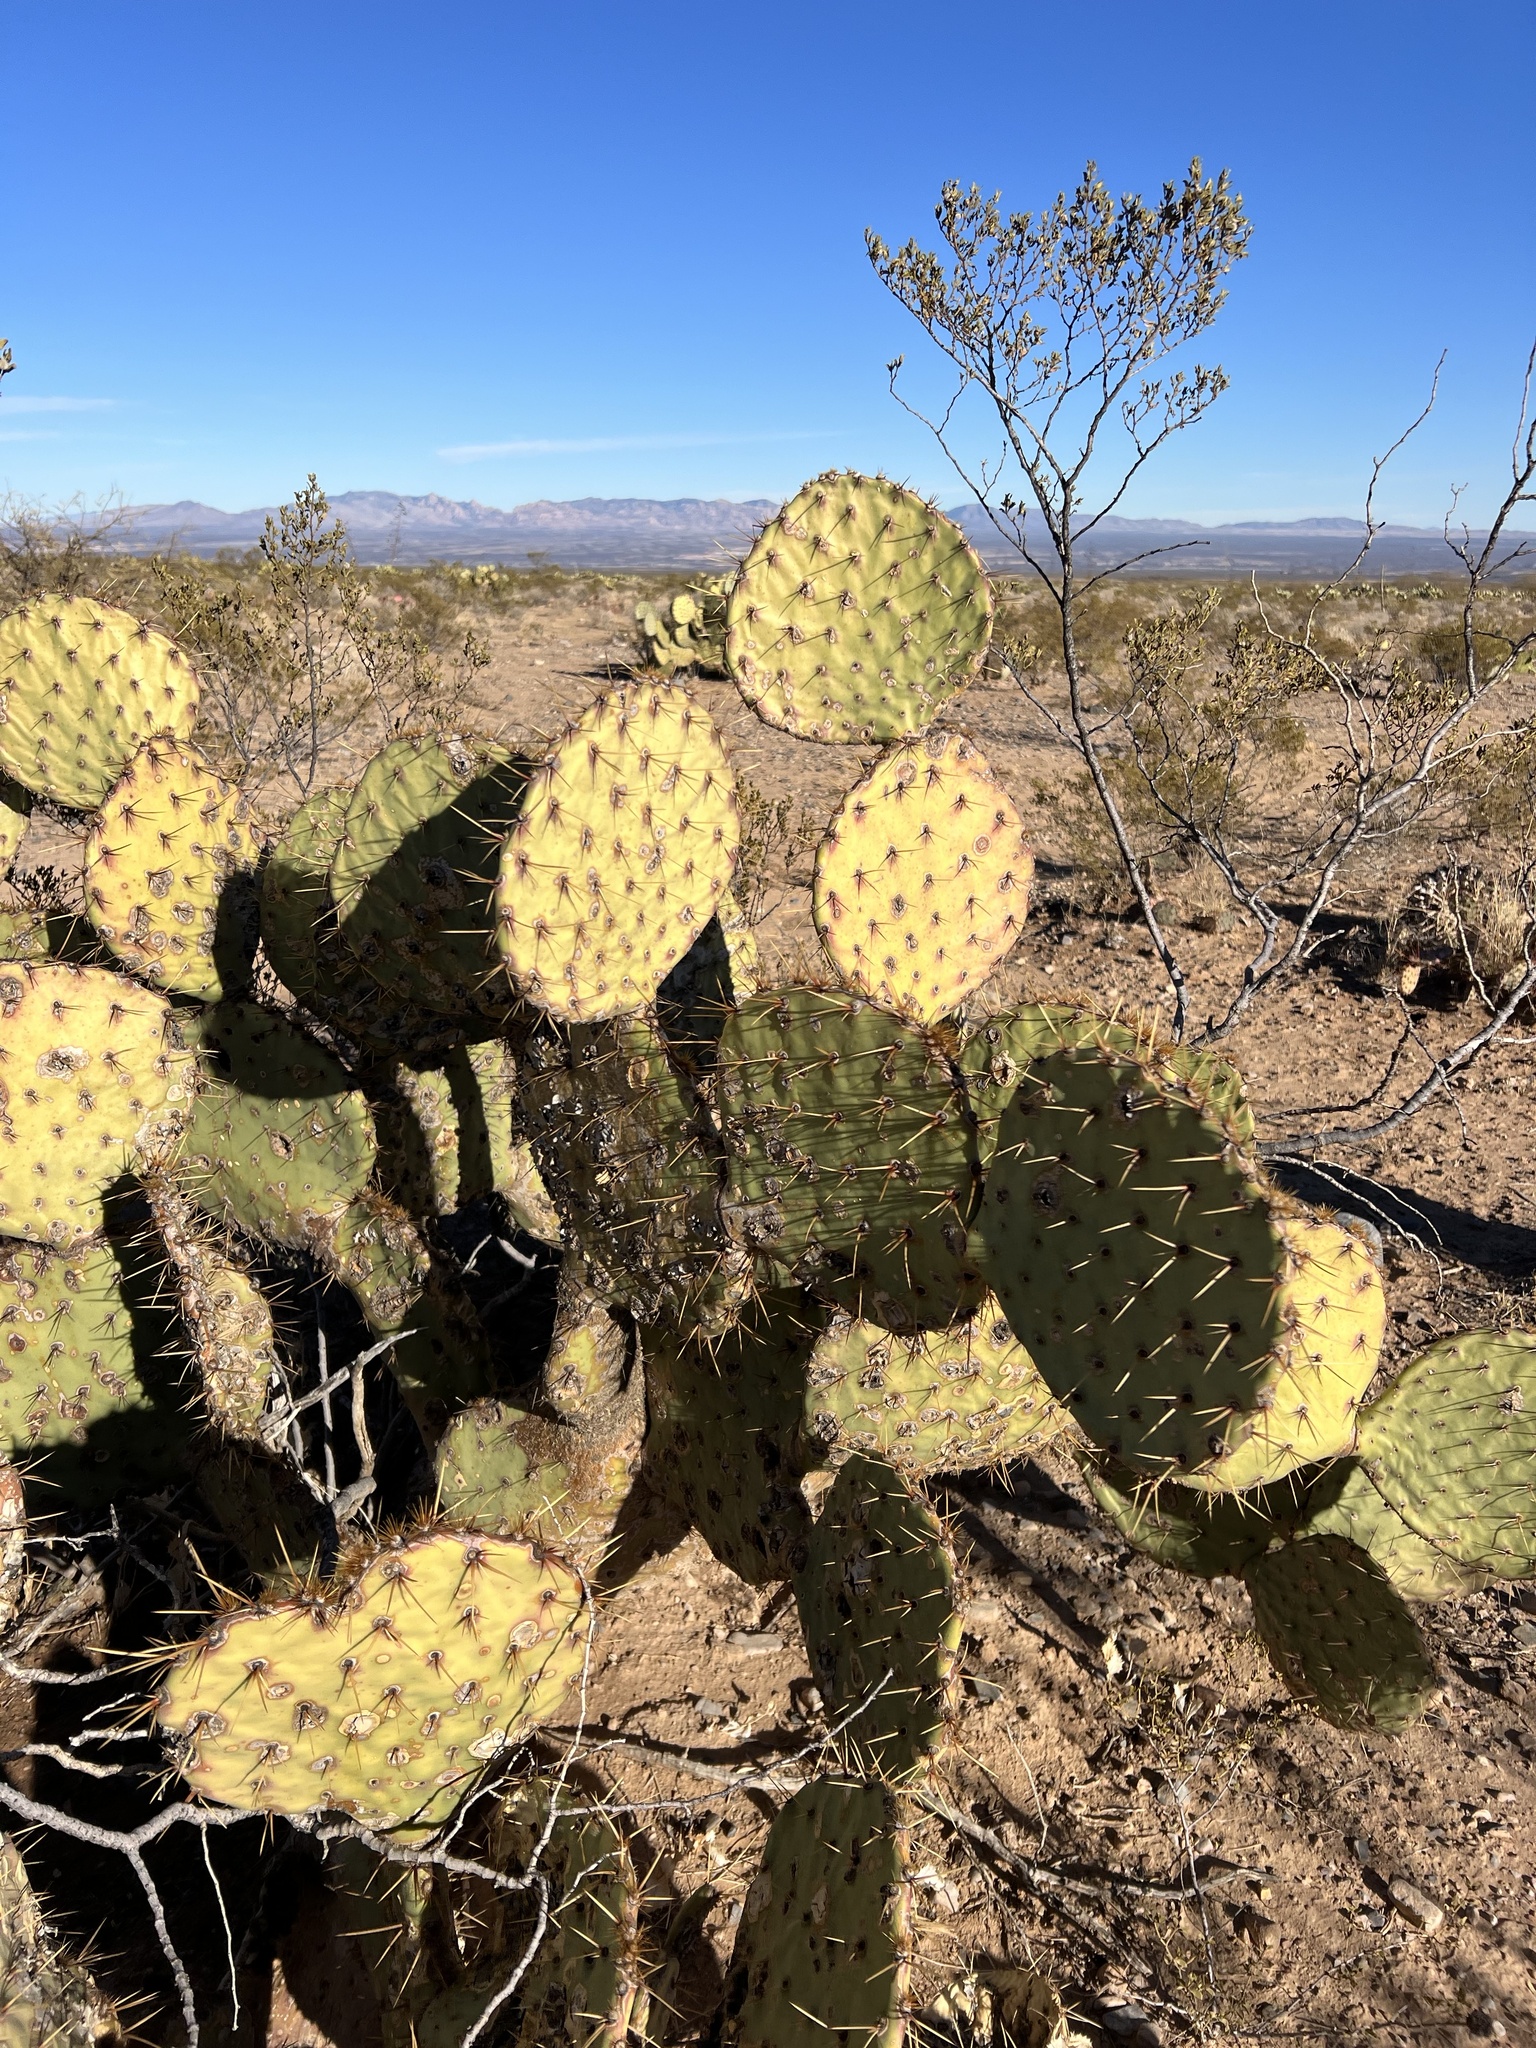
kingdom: Plantae
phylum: Tracheophyta
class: Magnoliopsida
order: Caryophyllales
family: Cactaceae
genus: Opuntia
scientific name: Opuntia engelmannii
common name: Cactus-apple
